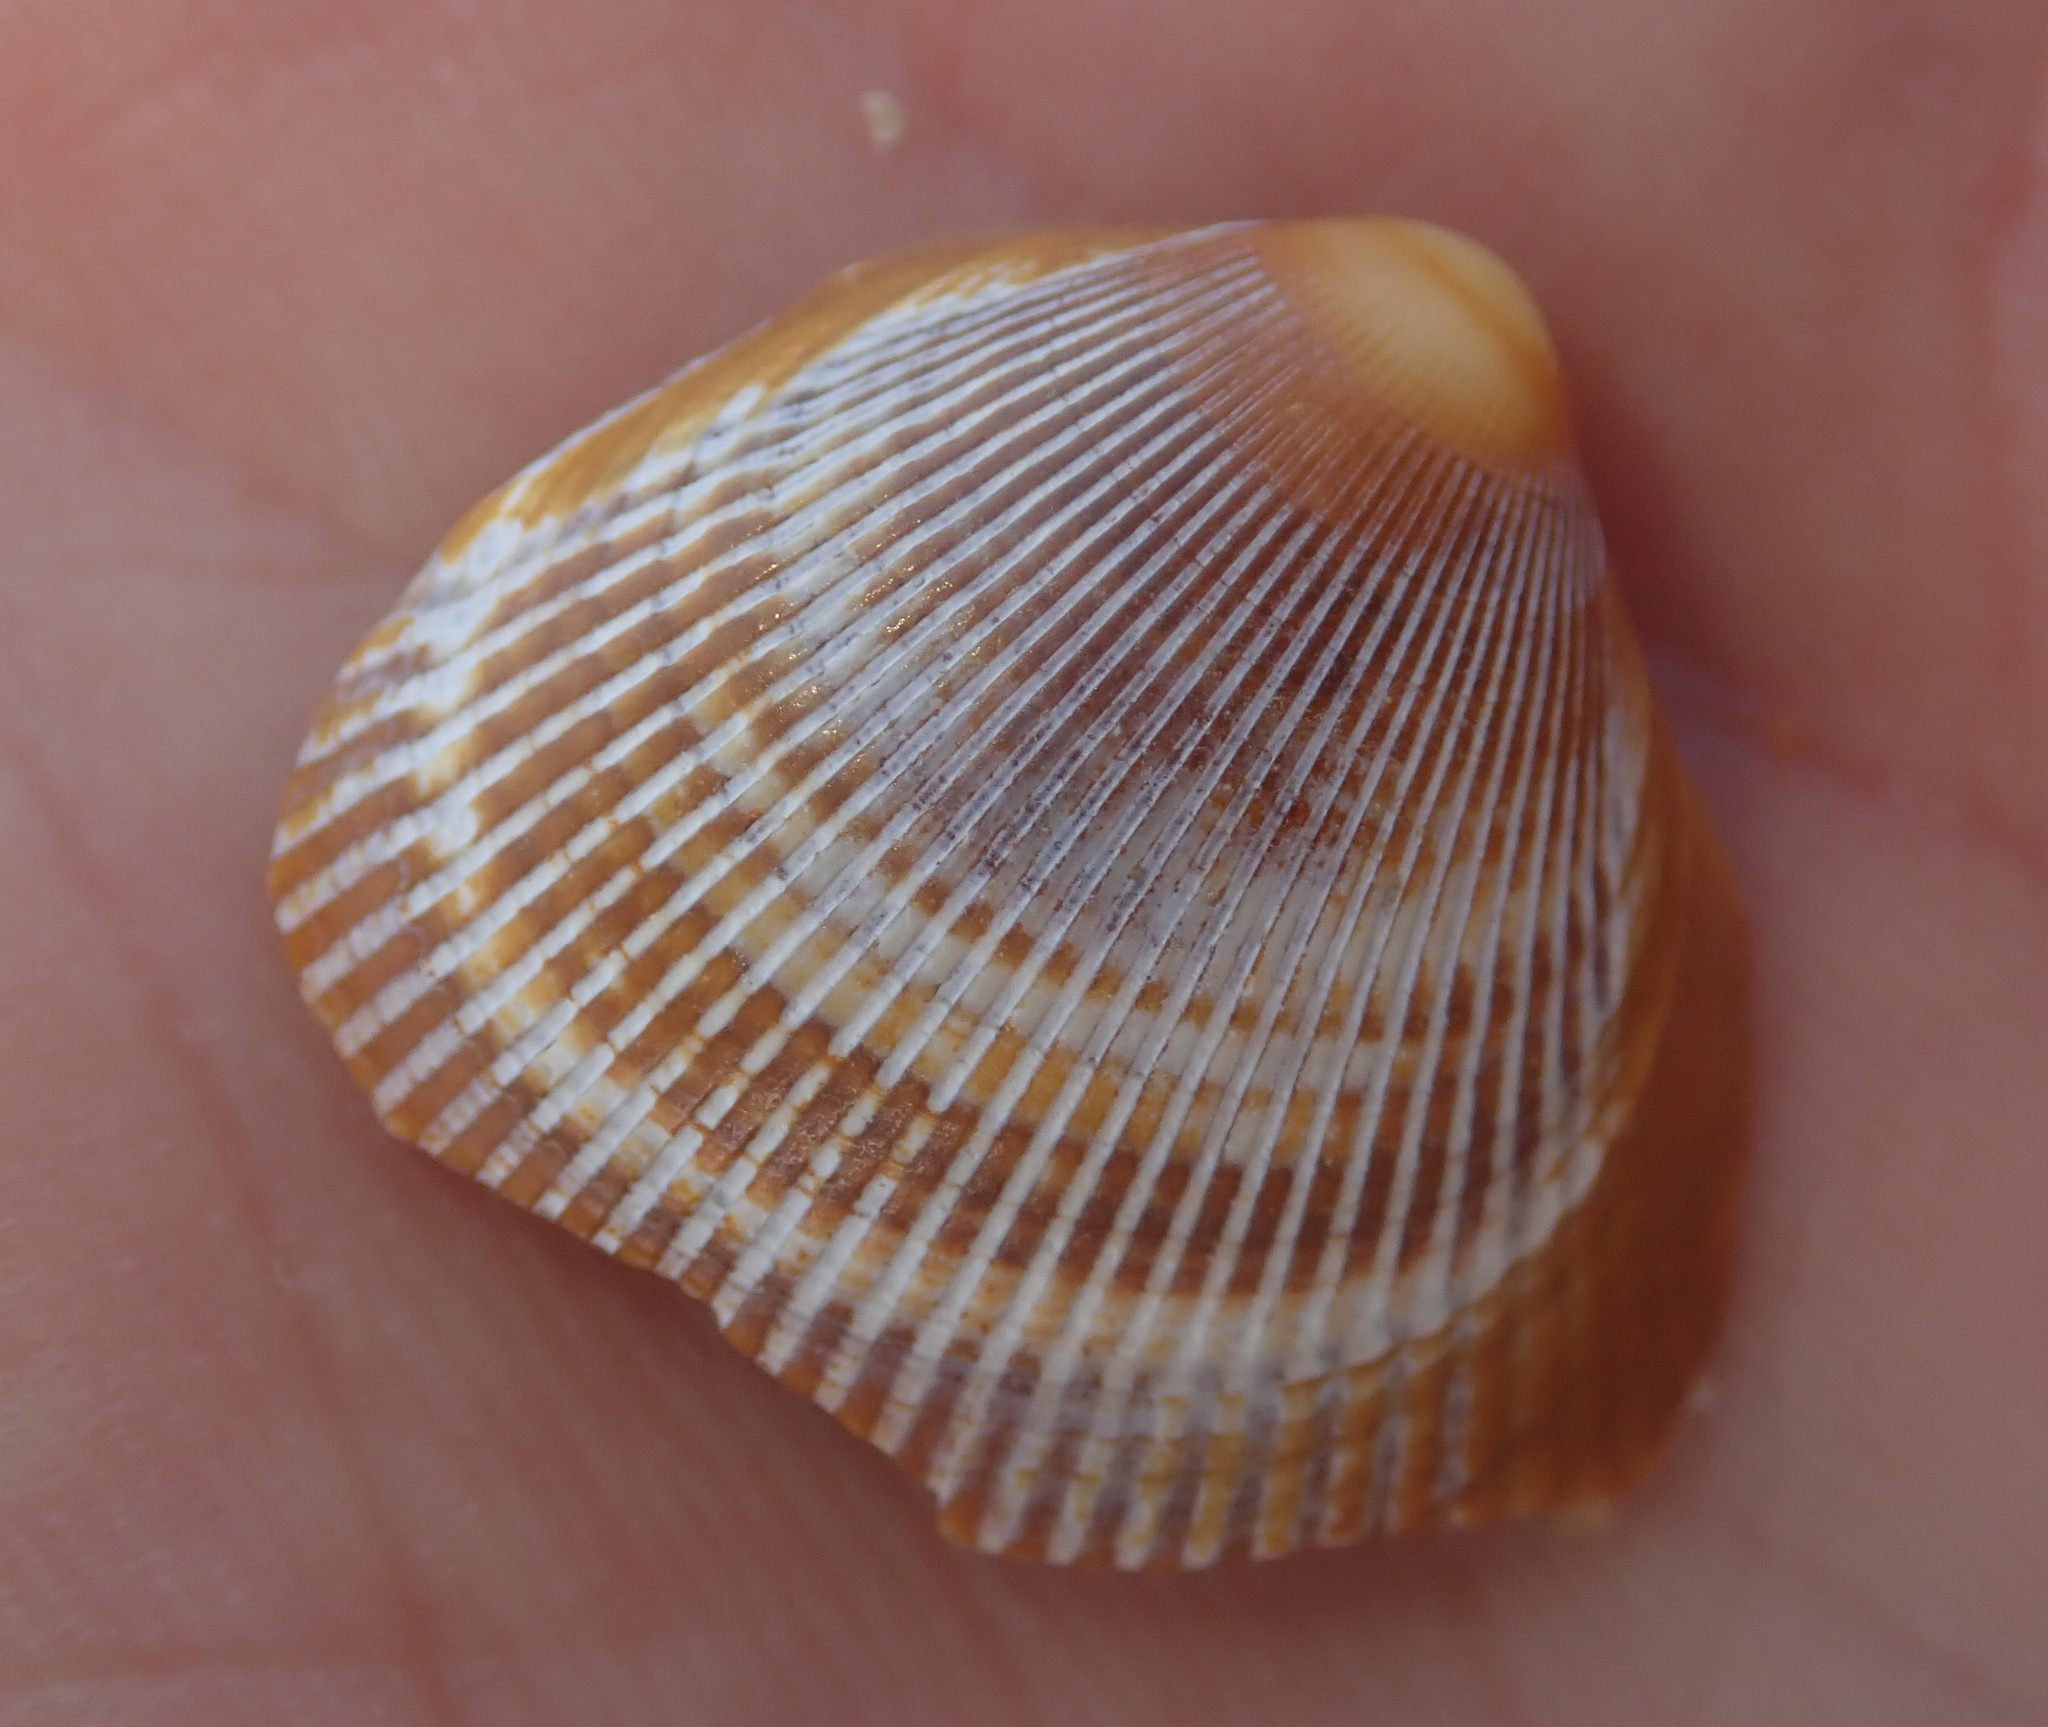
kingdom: Animalia
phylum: Mollusca
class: Bivalvia
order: Cardiida
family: Cardiidae
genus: Laevicardium
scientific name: Laevicardium crassum
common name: Norway cockle
